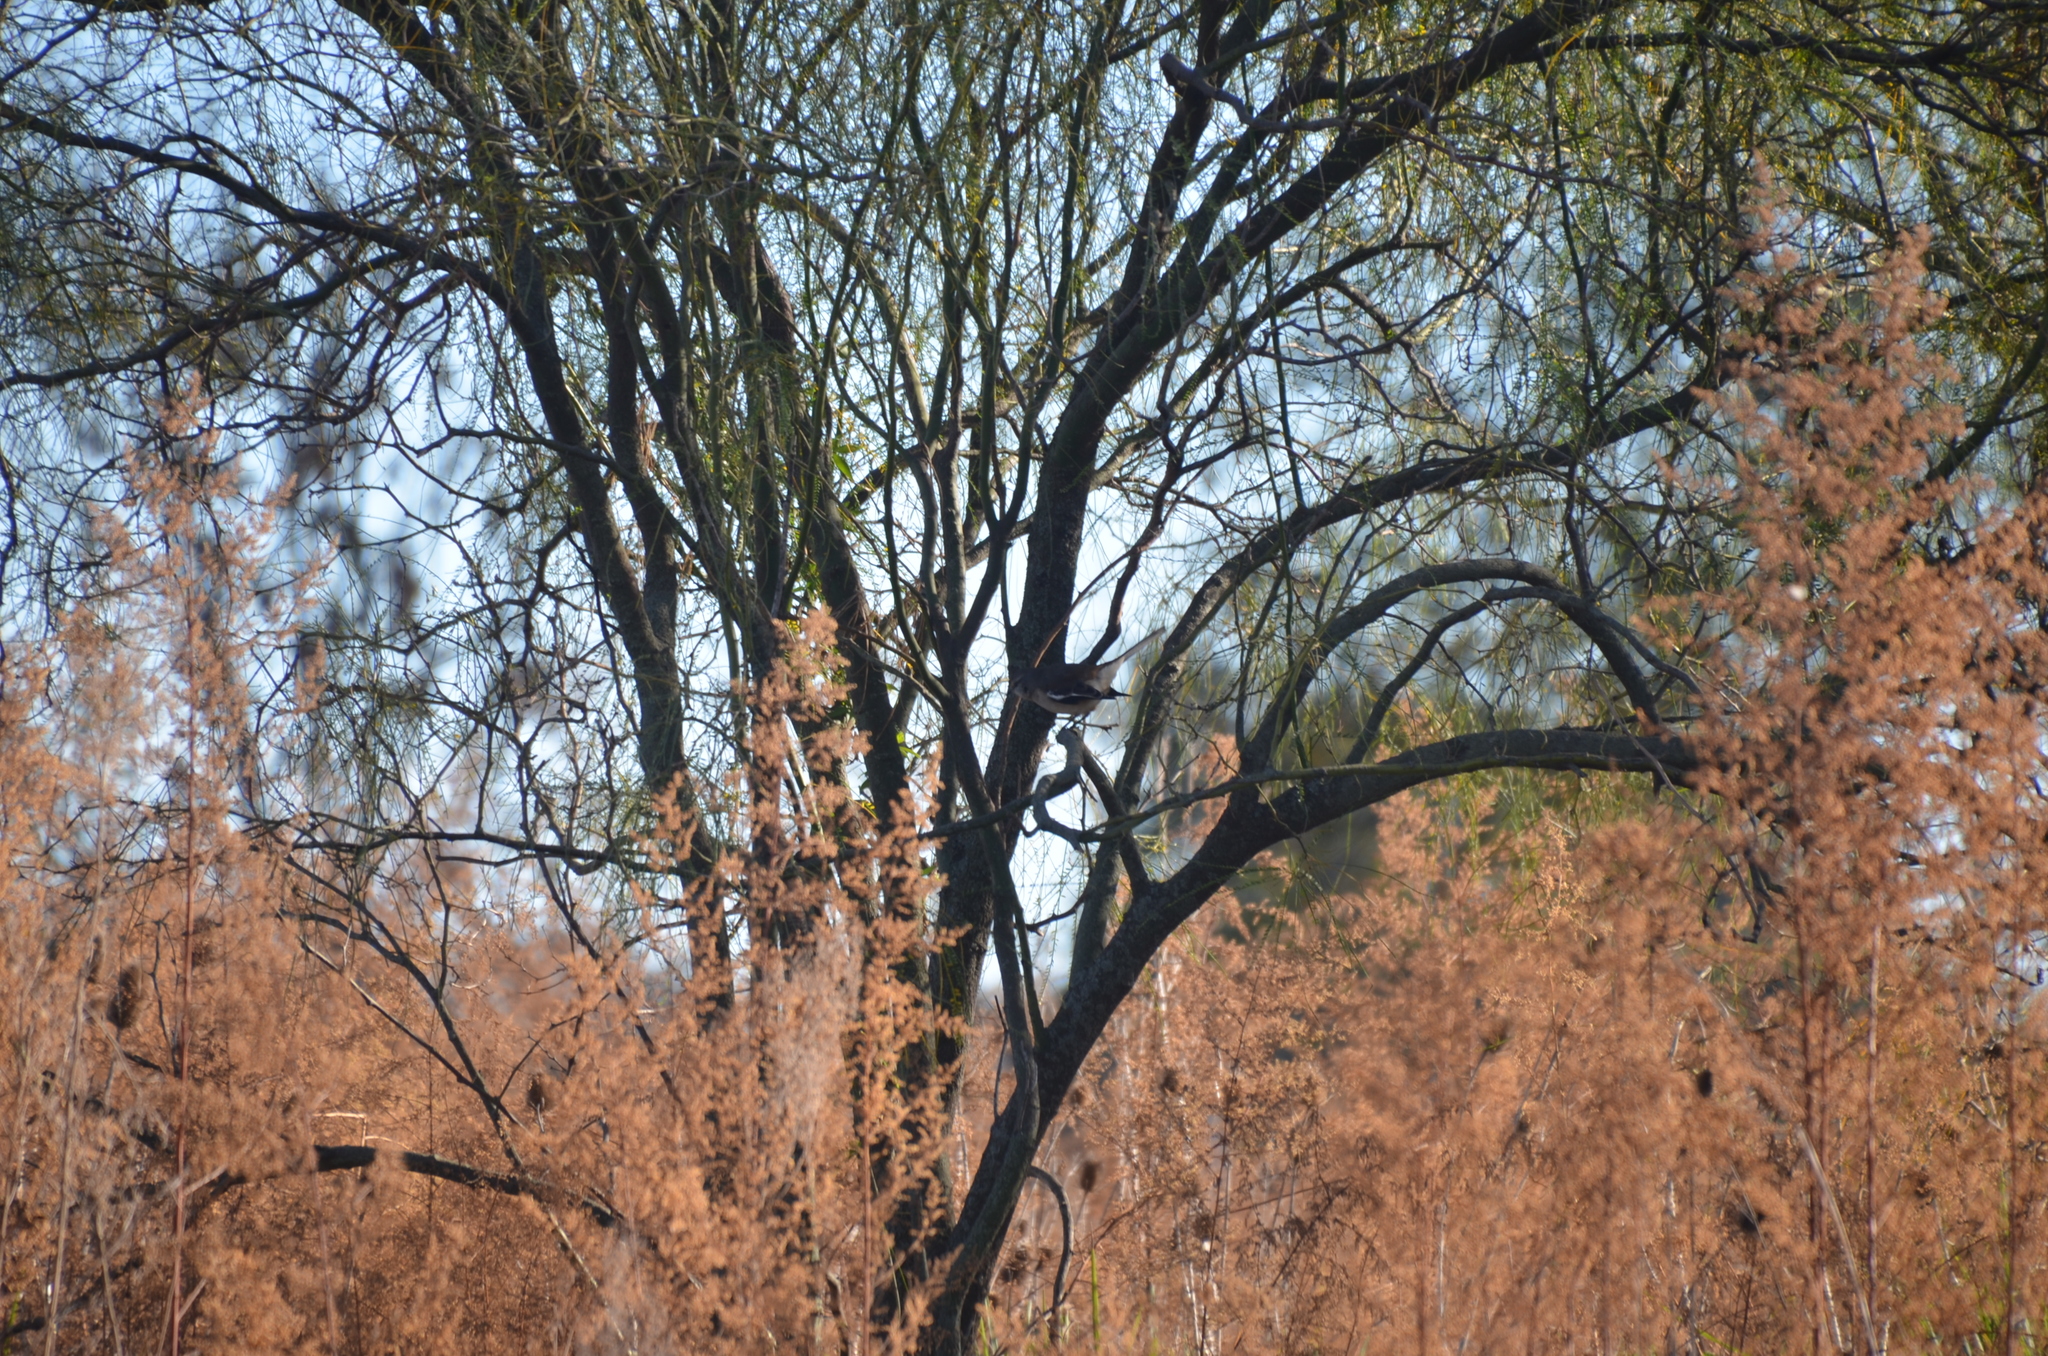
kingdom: Animalia
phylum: Chordata
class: Aves
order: Passeriformes
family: Mimidae
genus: Mimus
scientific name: Mimus triurus
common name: White-banded mockingbird
